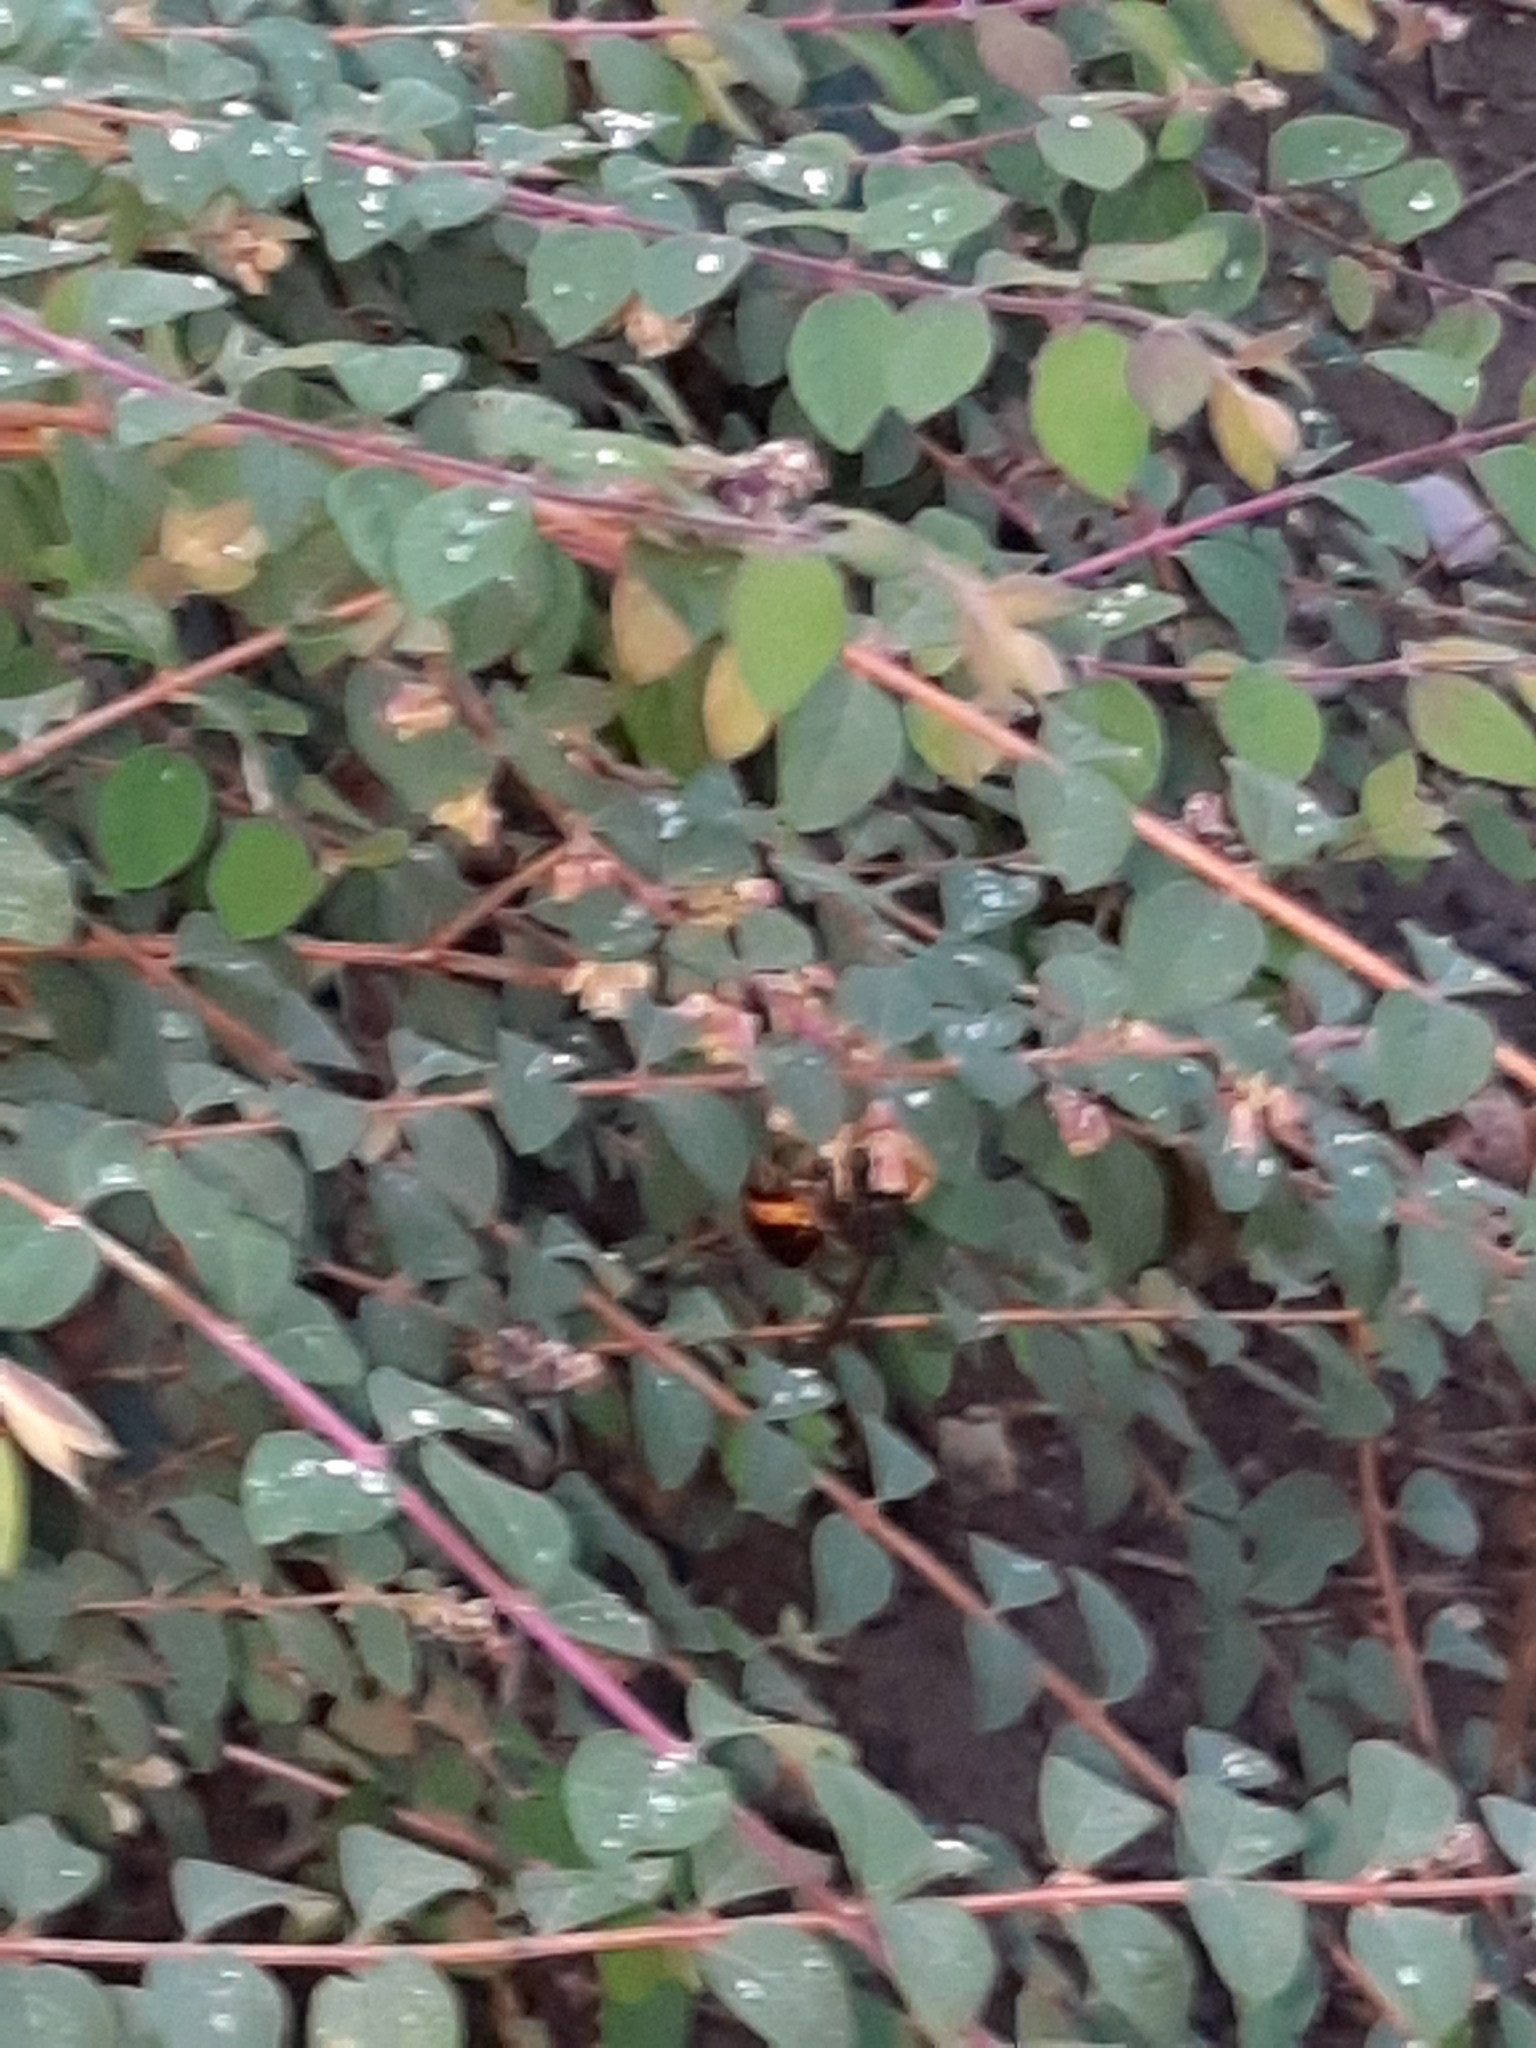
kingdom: Animalia
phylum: Arthropoda
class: Insecta
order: Hymenoptera
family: Vespidae
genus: Vespa
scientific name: Vespa velutina
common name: Asian hornet
